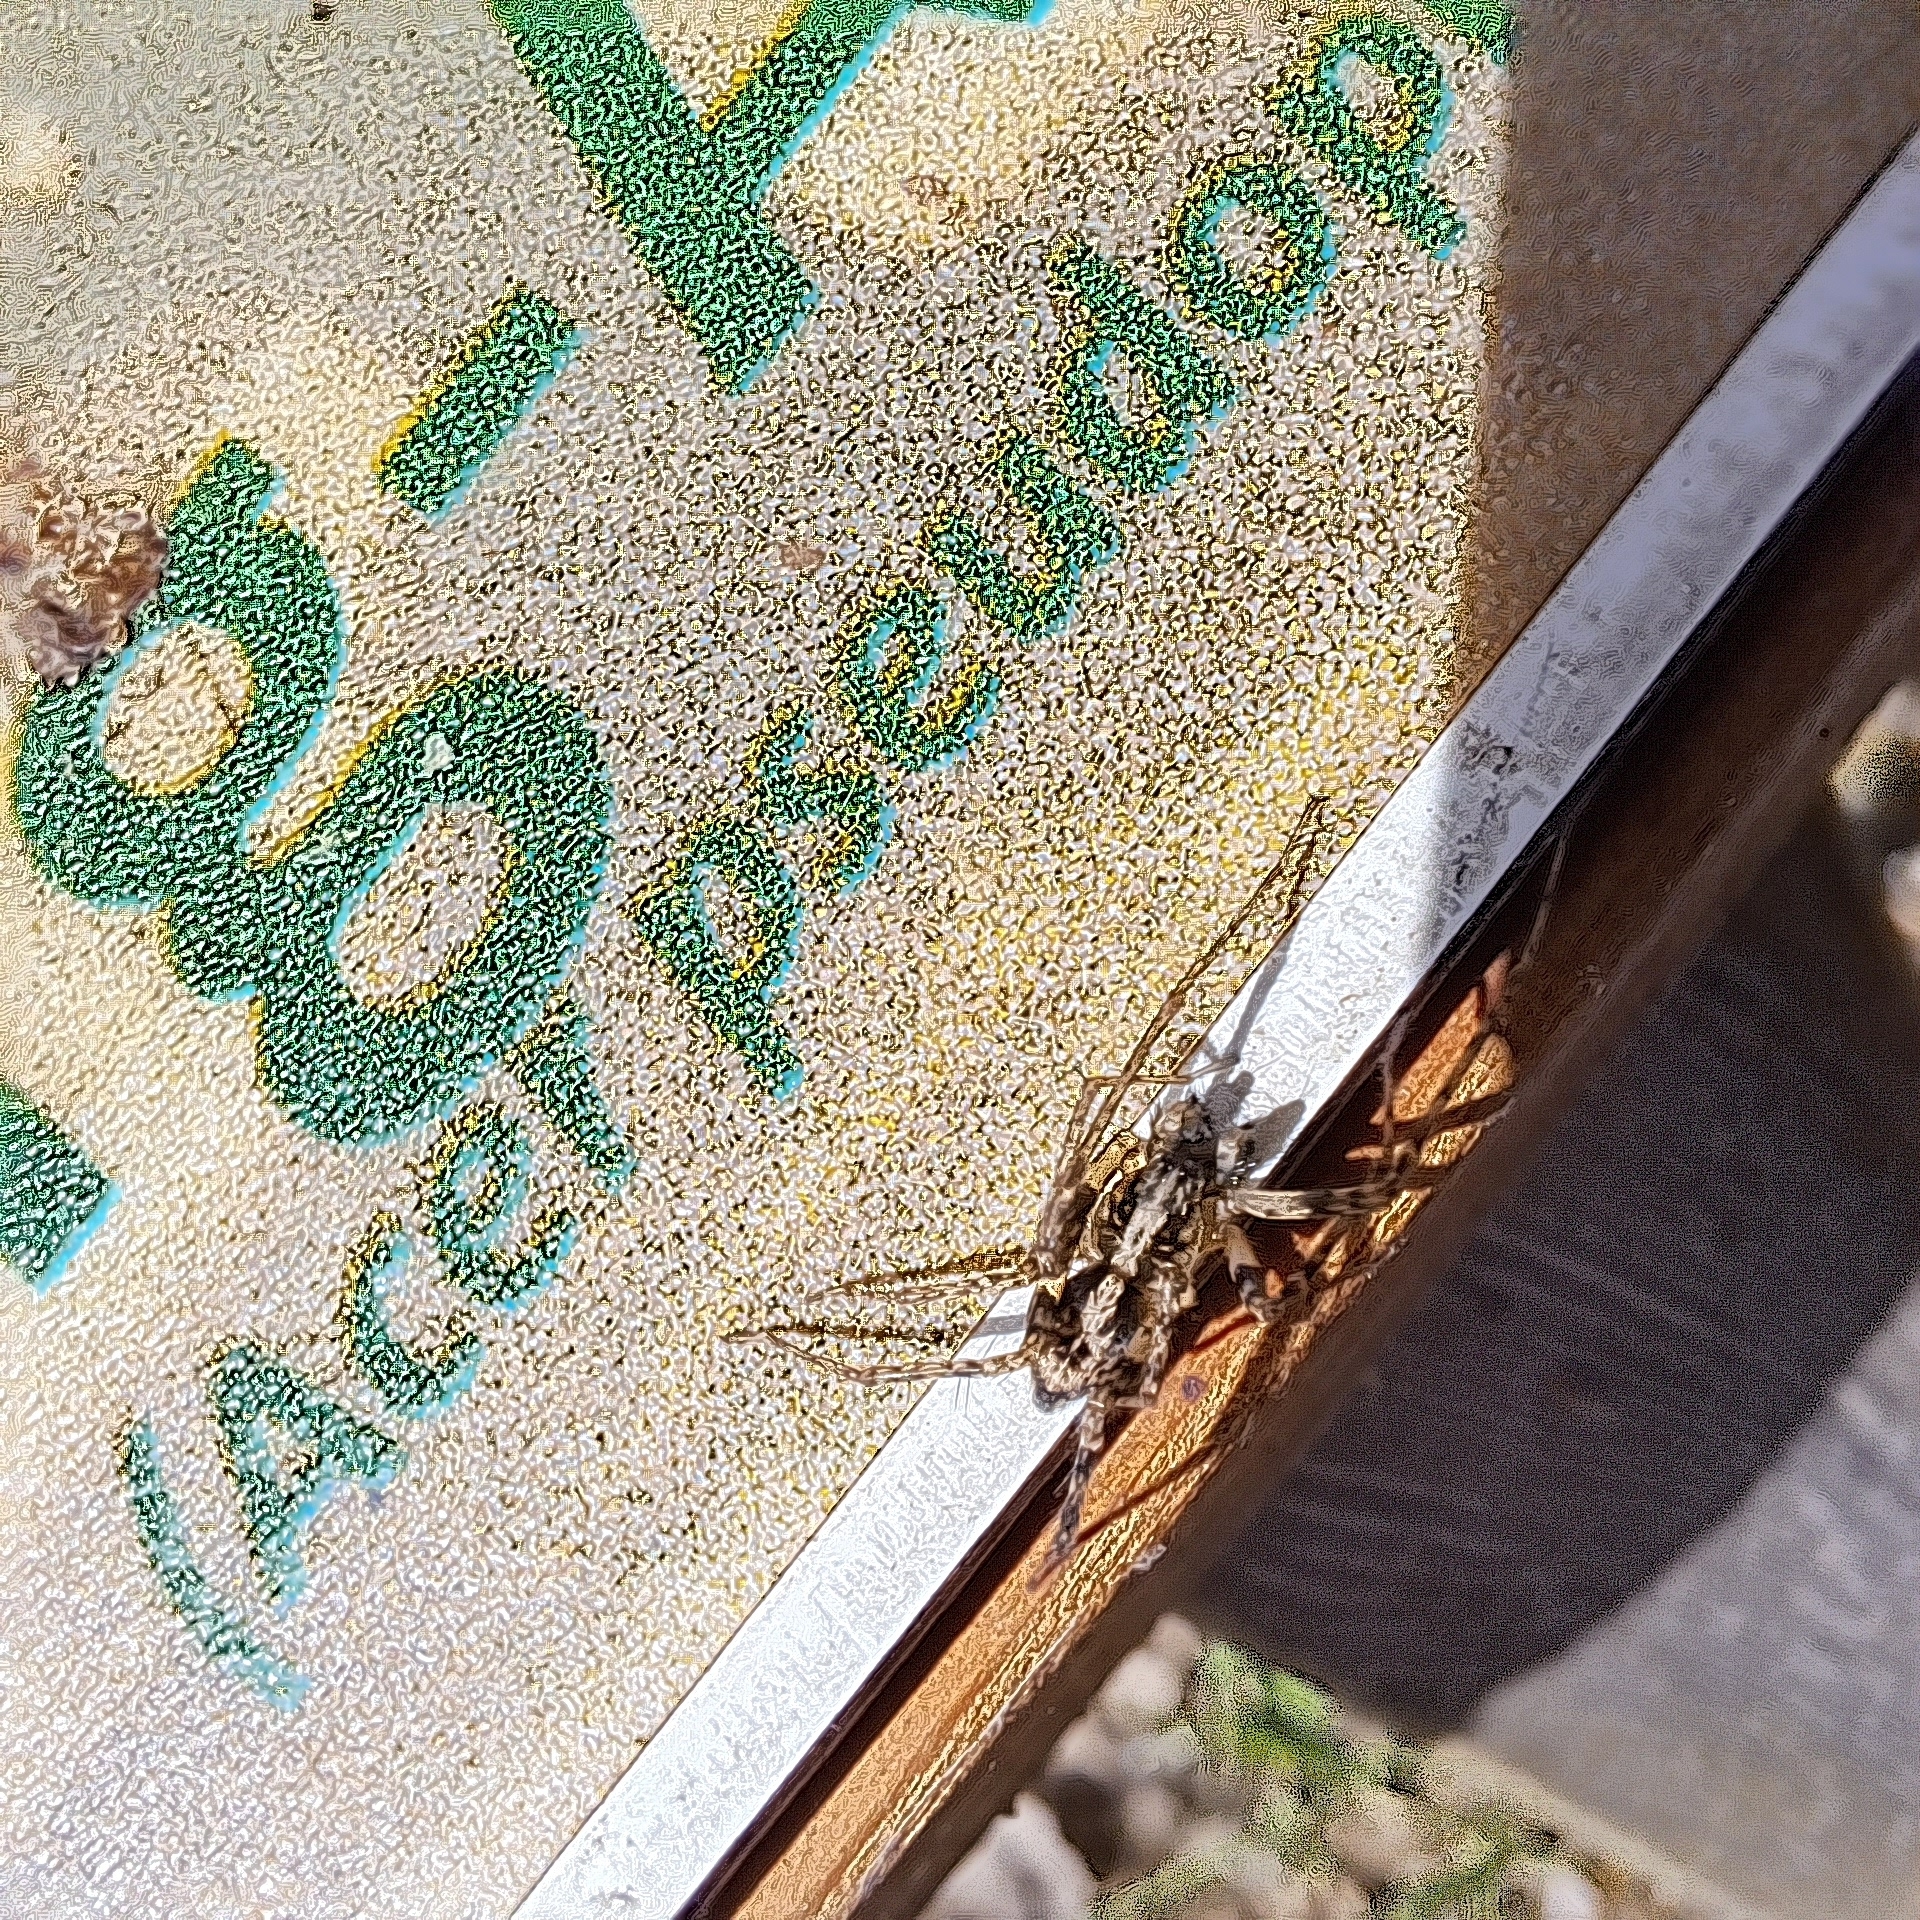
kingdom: Animalia
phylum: Arthropoda
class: Arachnida
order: Araneae
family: Anyphaenidae
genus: Anyphaena
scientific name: Anyphaena accentuata
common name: Buzzing spider
